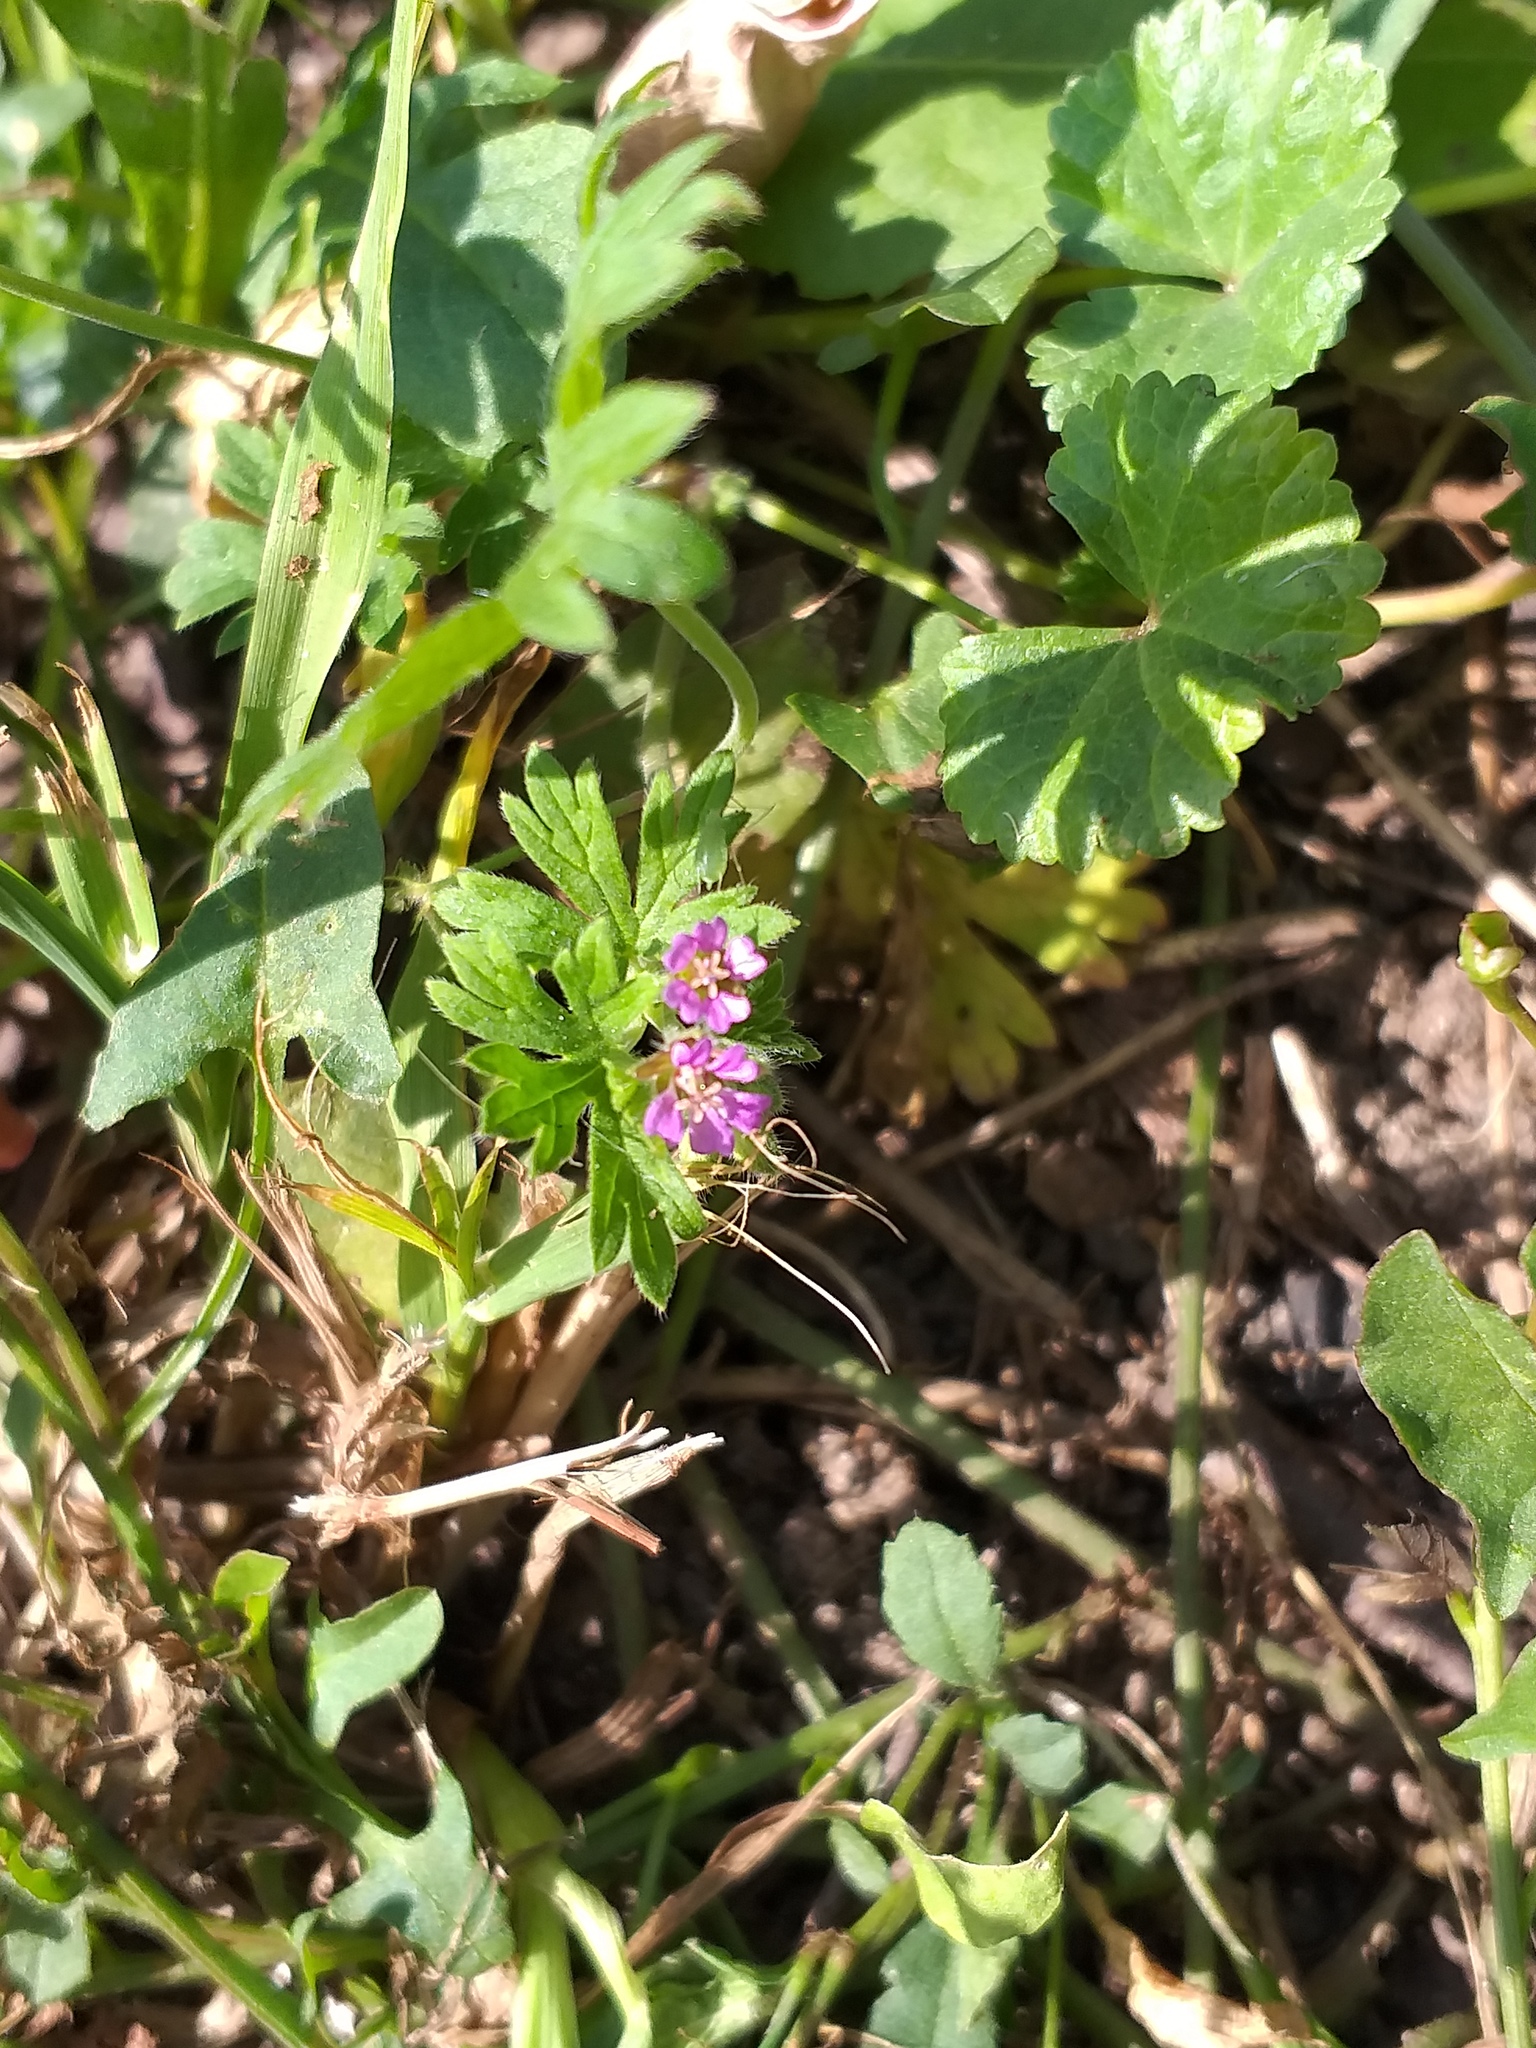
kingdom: Plantae
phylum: Tracheophyta
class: Magnoliopsida
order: Geraniales
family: Geraniaceae
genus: Geranium
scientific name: Geranium pusillum
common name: Small geranium
